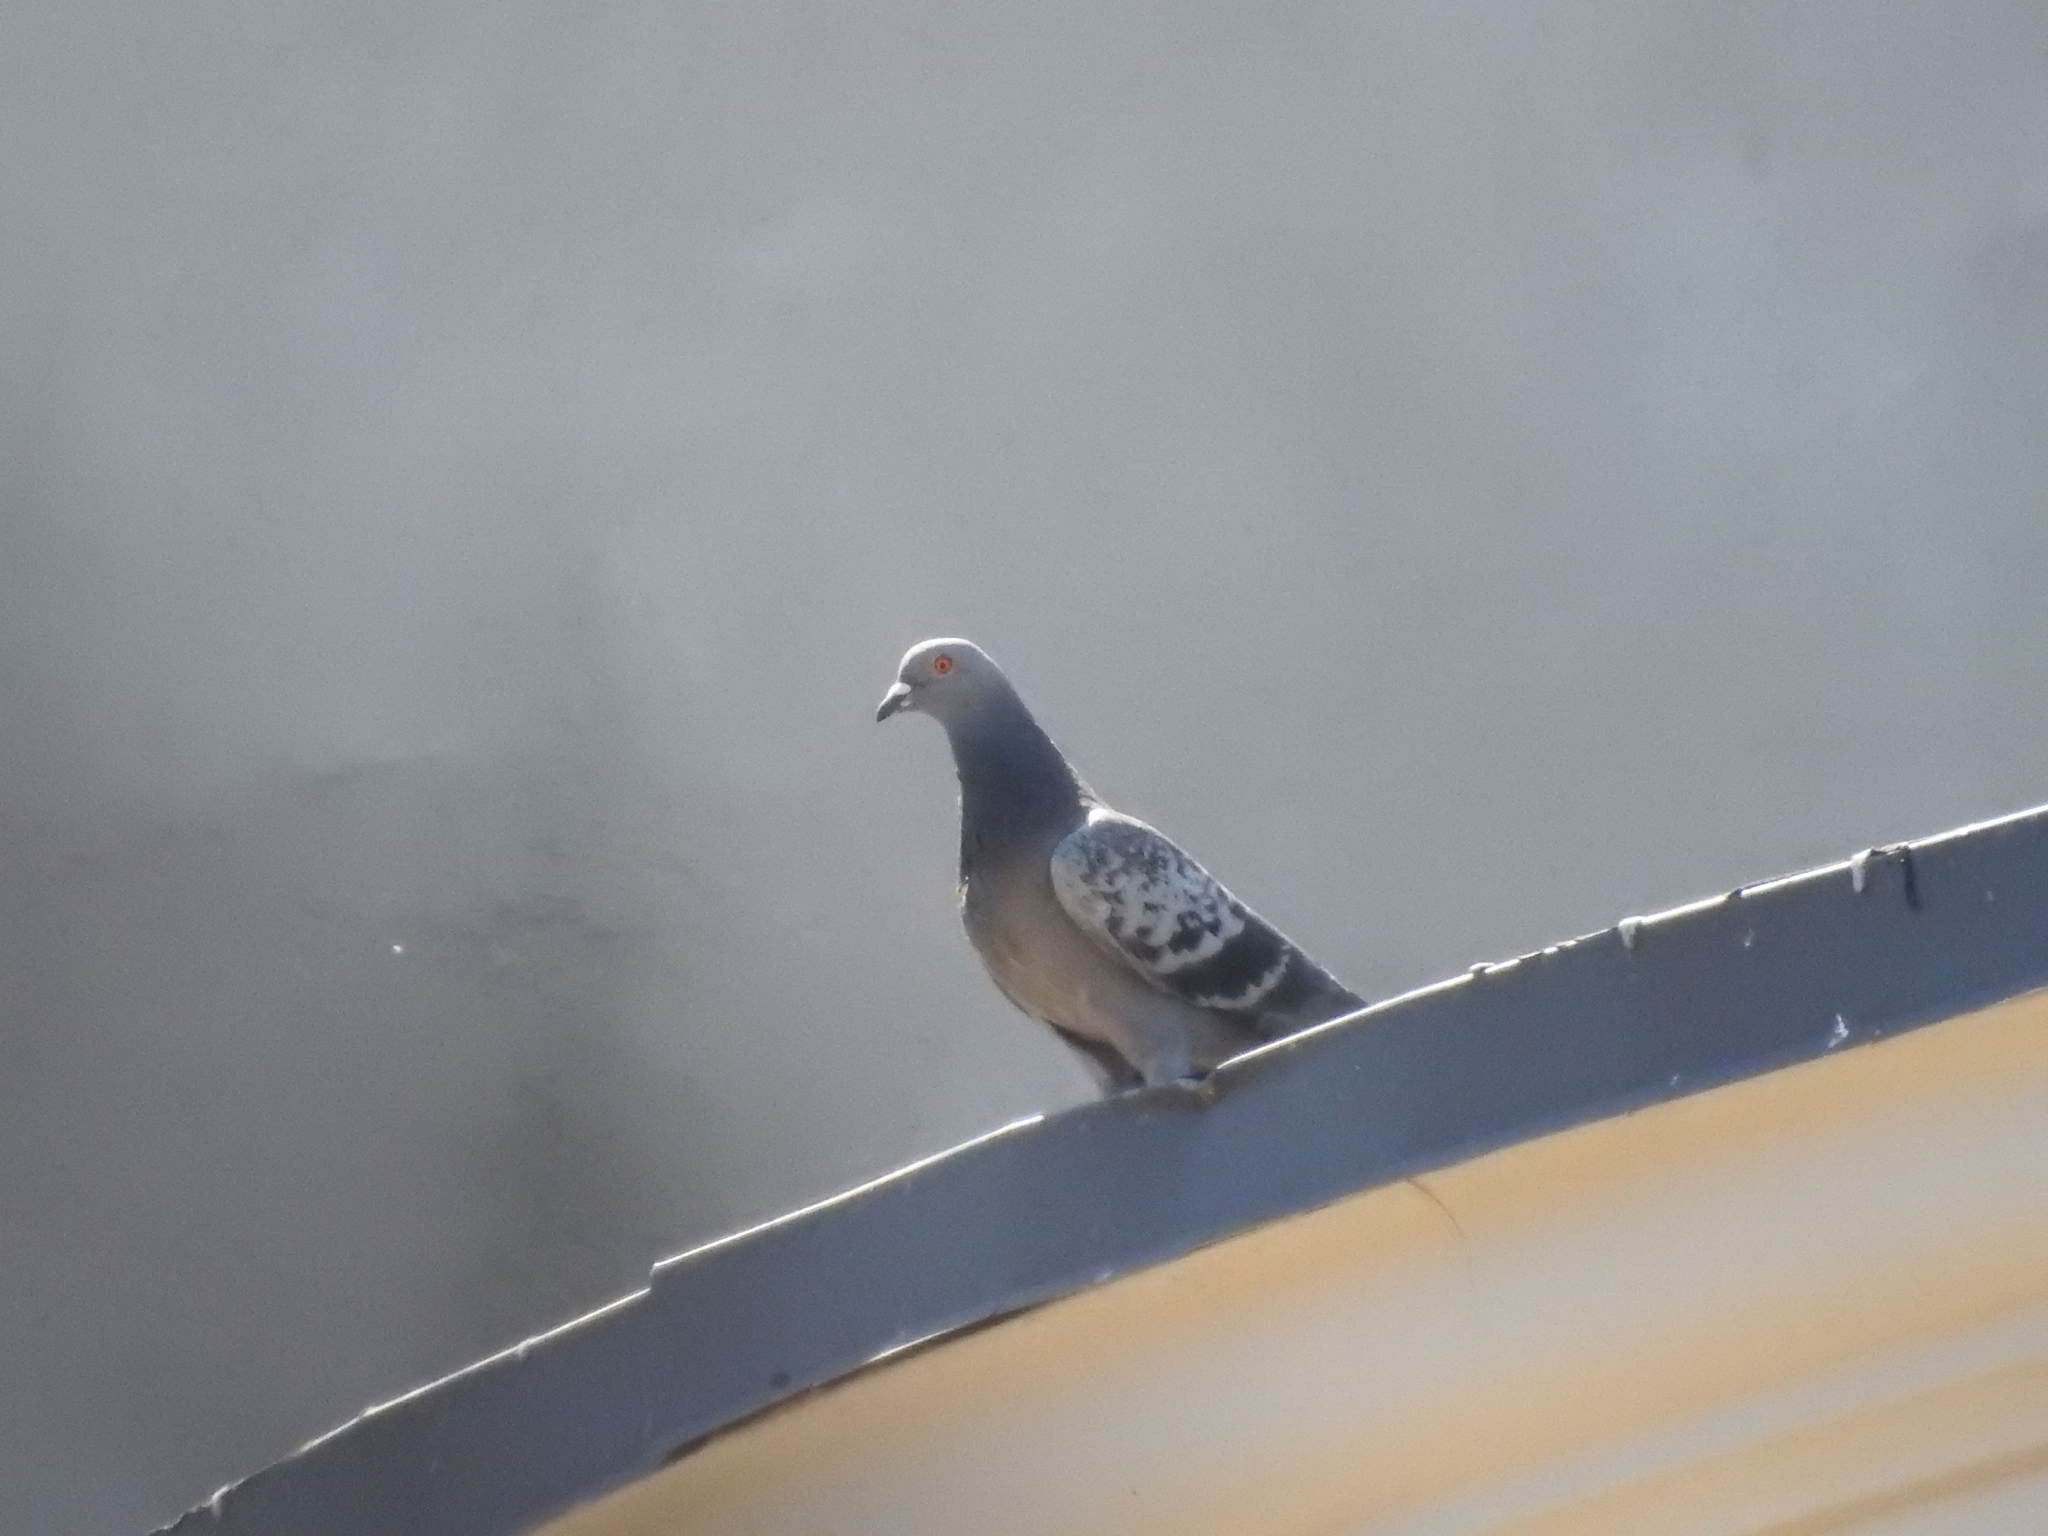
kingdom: Animalia
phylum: Chordata
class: Aves
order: Columbiformes
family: Columbidae
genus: Columba
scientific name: Columba livia
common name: Rock pigeon
